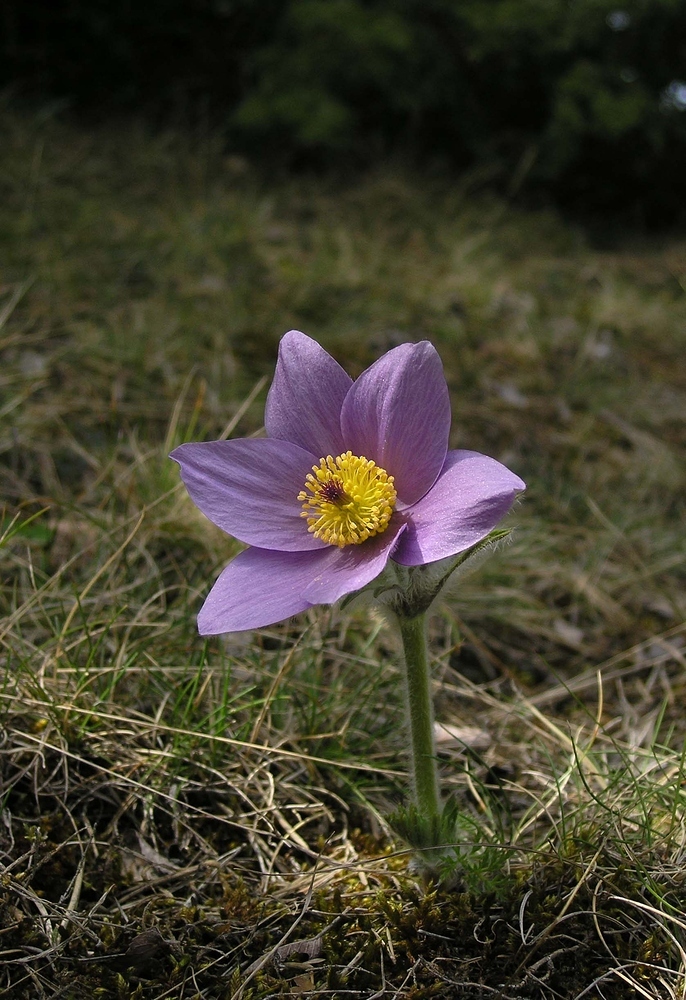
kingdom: Plantae
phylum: Tracheophyta
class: Magnoliopsida
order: Ranunculales
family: Ranunculaceae
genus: Pulsatilla
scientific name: Pulsatilla vulgaris
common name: Pasqueflower
